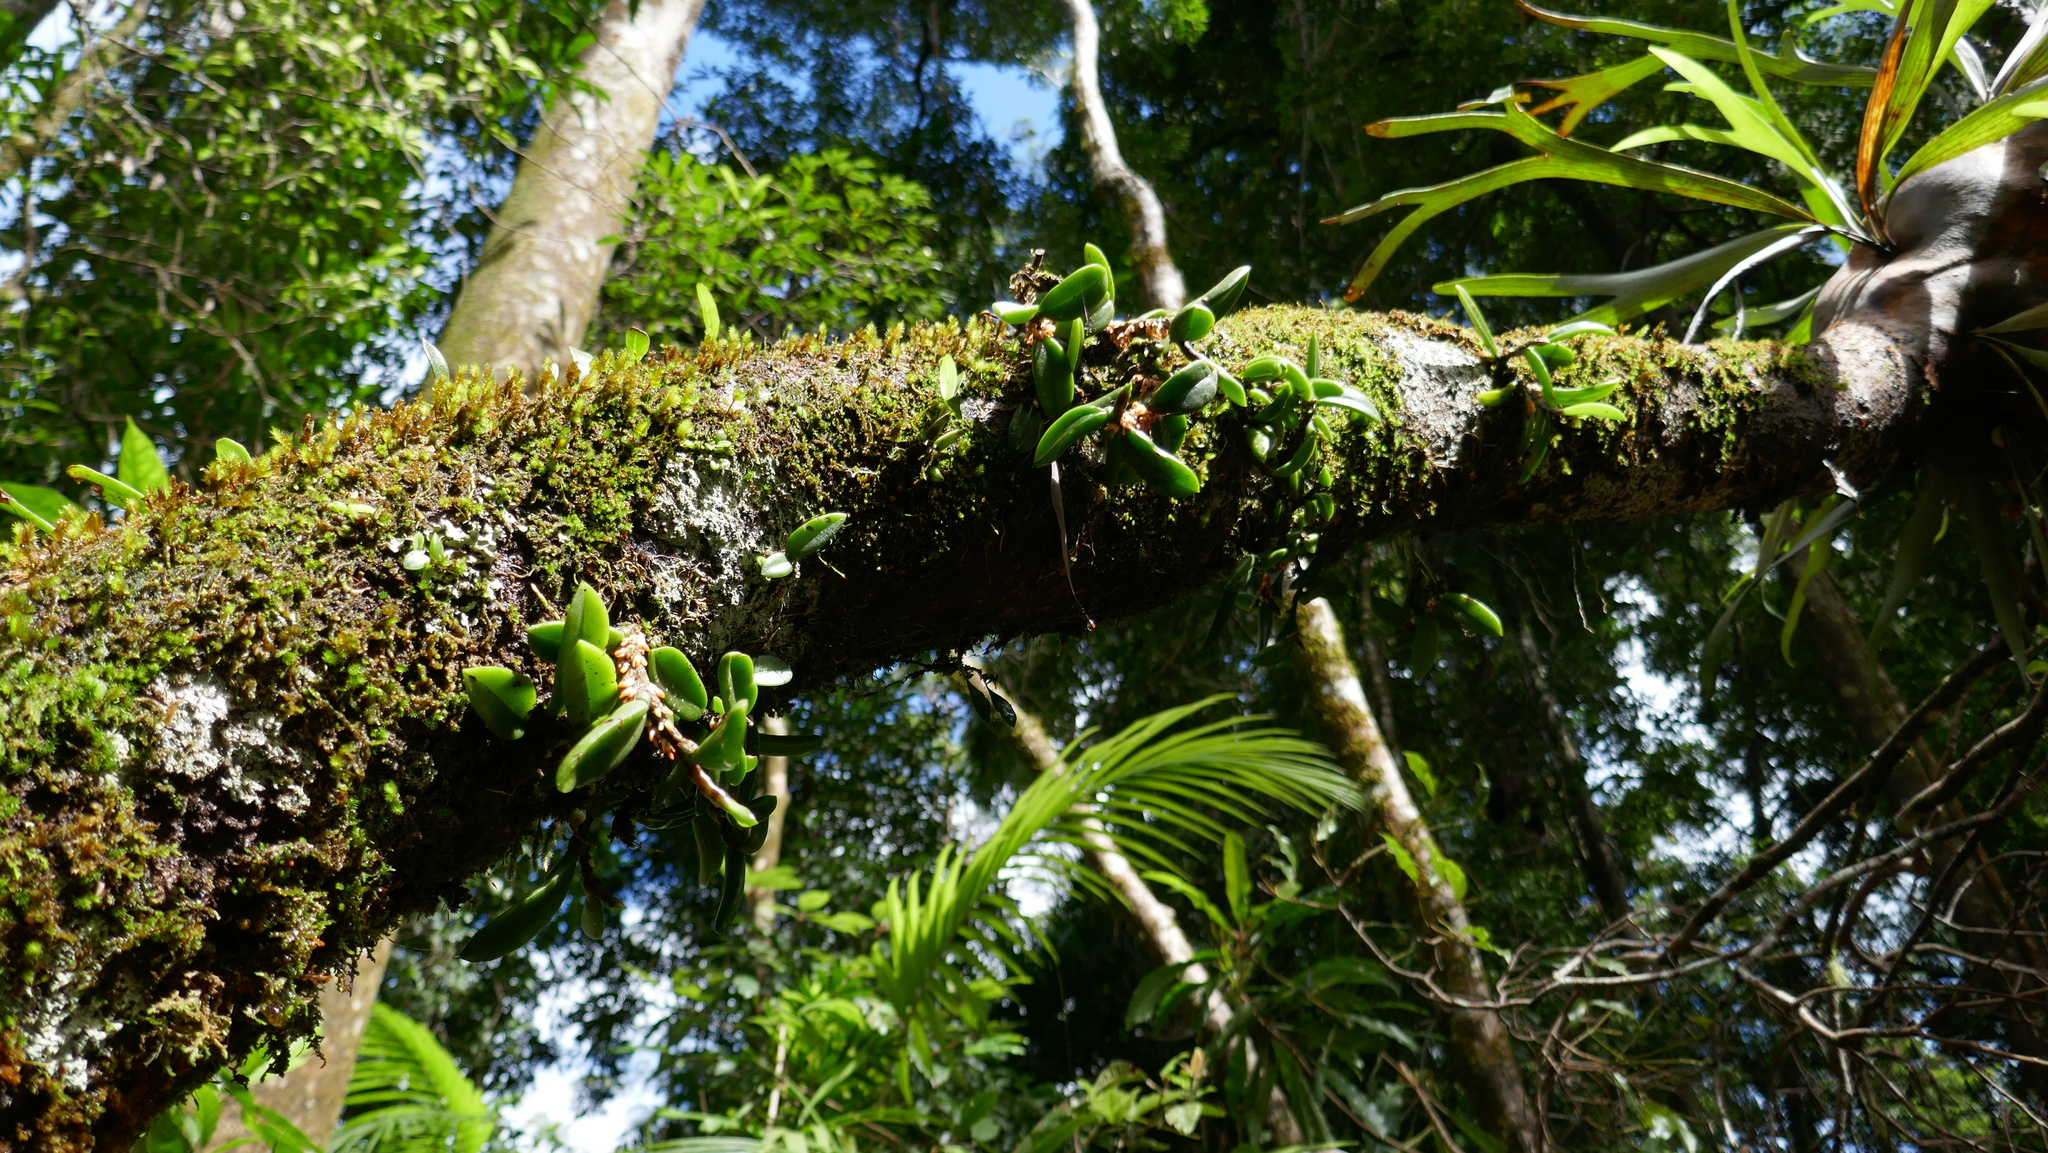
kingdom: Plantae
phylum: Tracheophyta
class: Liliopsida
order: Asparagales
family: Orchidaceae
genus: Bulbophyllum
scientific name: Bulbophyllum schillerianum
